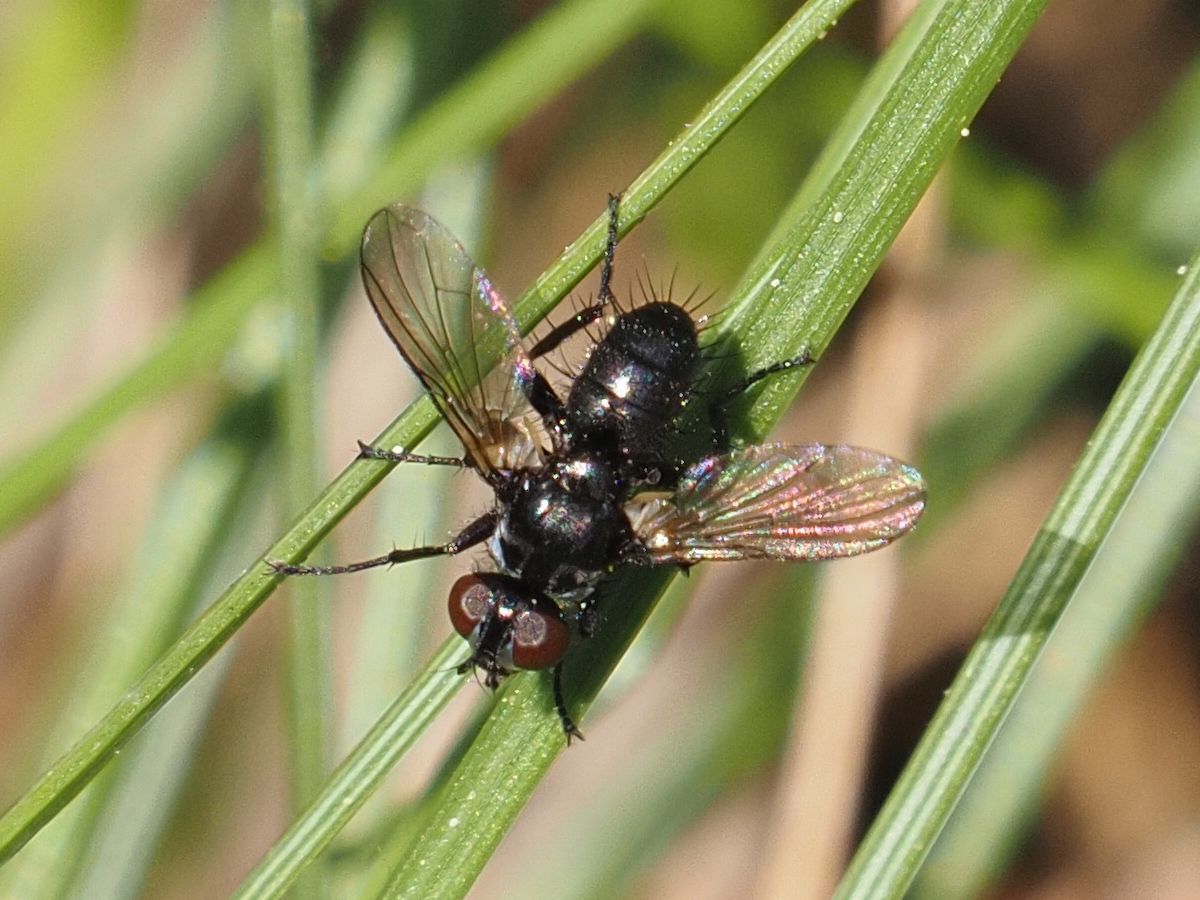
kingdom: Animalia
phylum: Arthropoda
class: Insecta
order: Diptera
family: Tachinidae
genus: Phania
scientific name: Phania funesta
